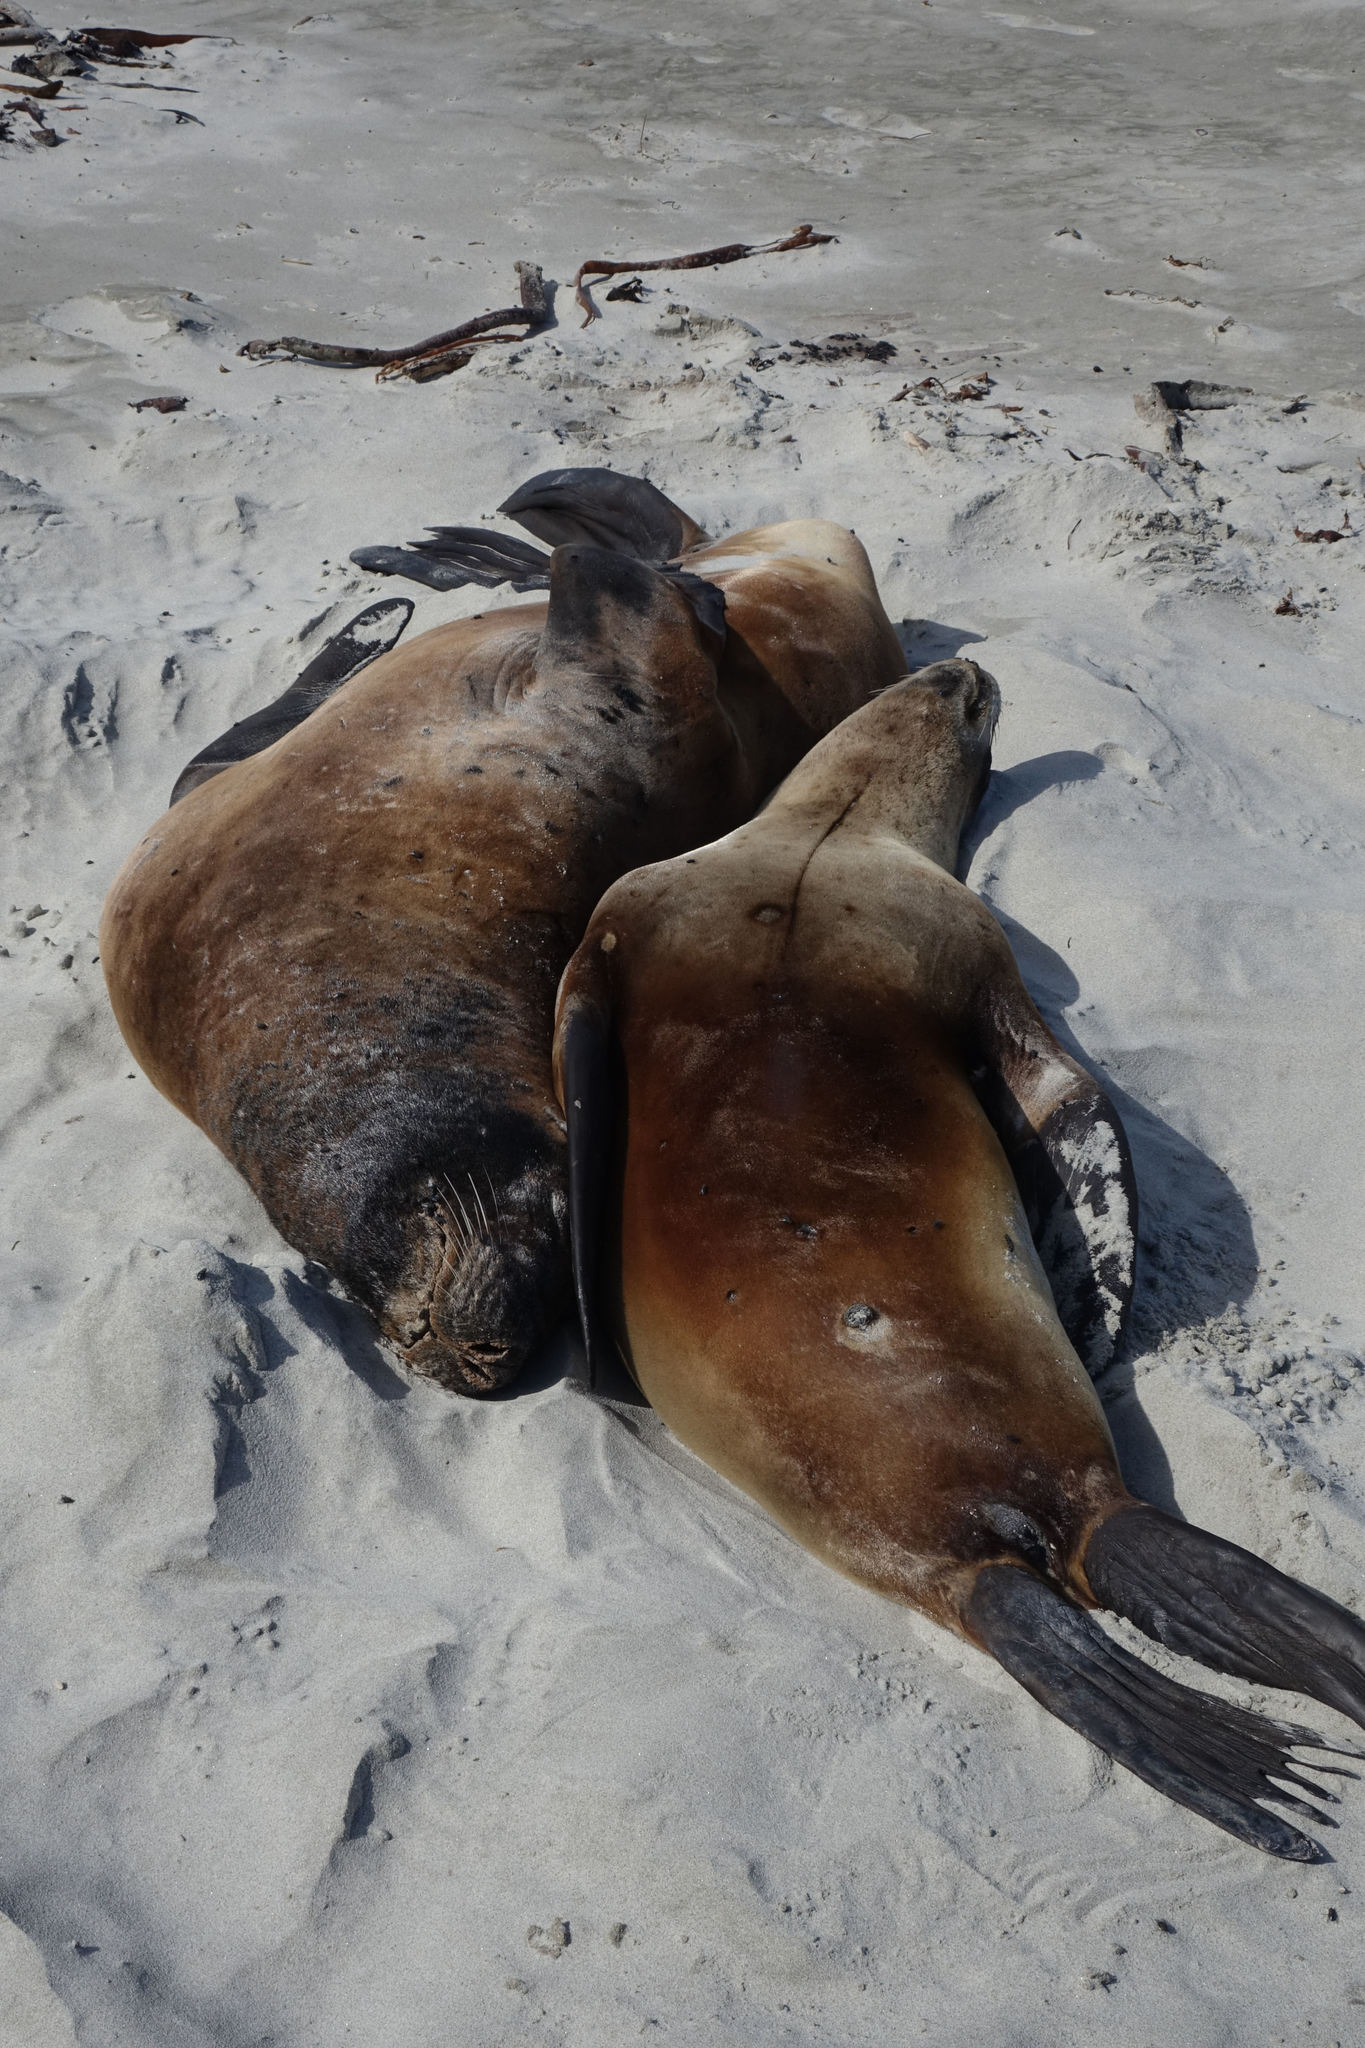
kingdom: Animalia
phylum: Chordata
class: Mammalia
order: Carnivora
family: Otariidae
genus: Phocarctos
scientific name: Phocarctos hookeri
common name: New zealand sea lion
